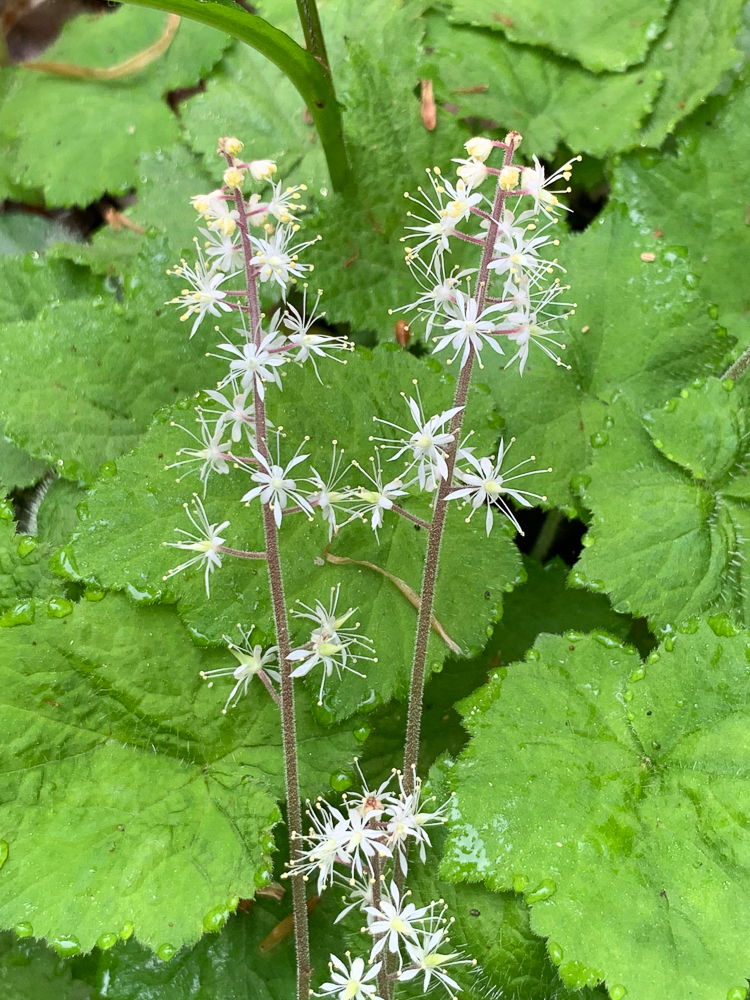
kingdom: Plantae
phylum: Tracheophyta
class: Magnoliopsida
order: Saxifragales
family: Saxifragaceae
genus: Tiarella
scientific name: Tiarella stolonifera
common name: Stoloniferous foamflower
